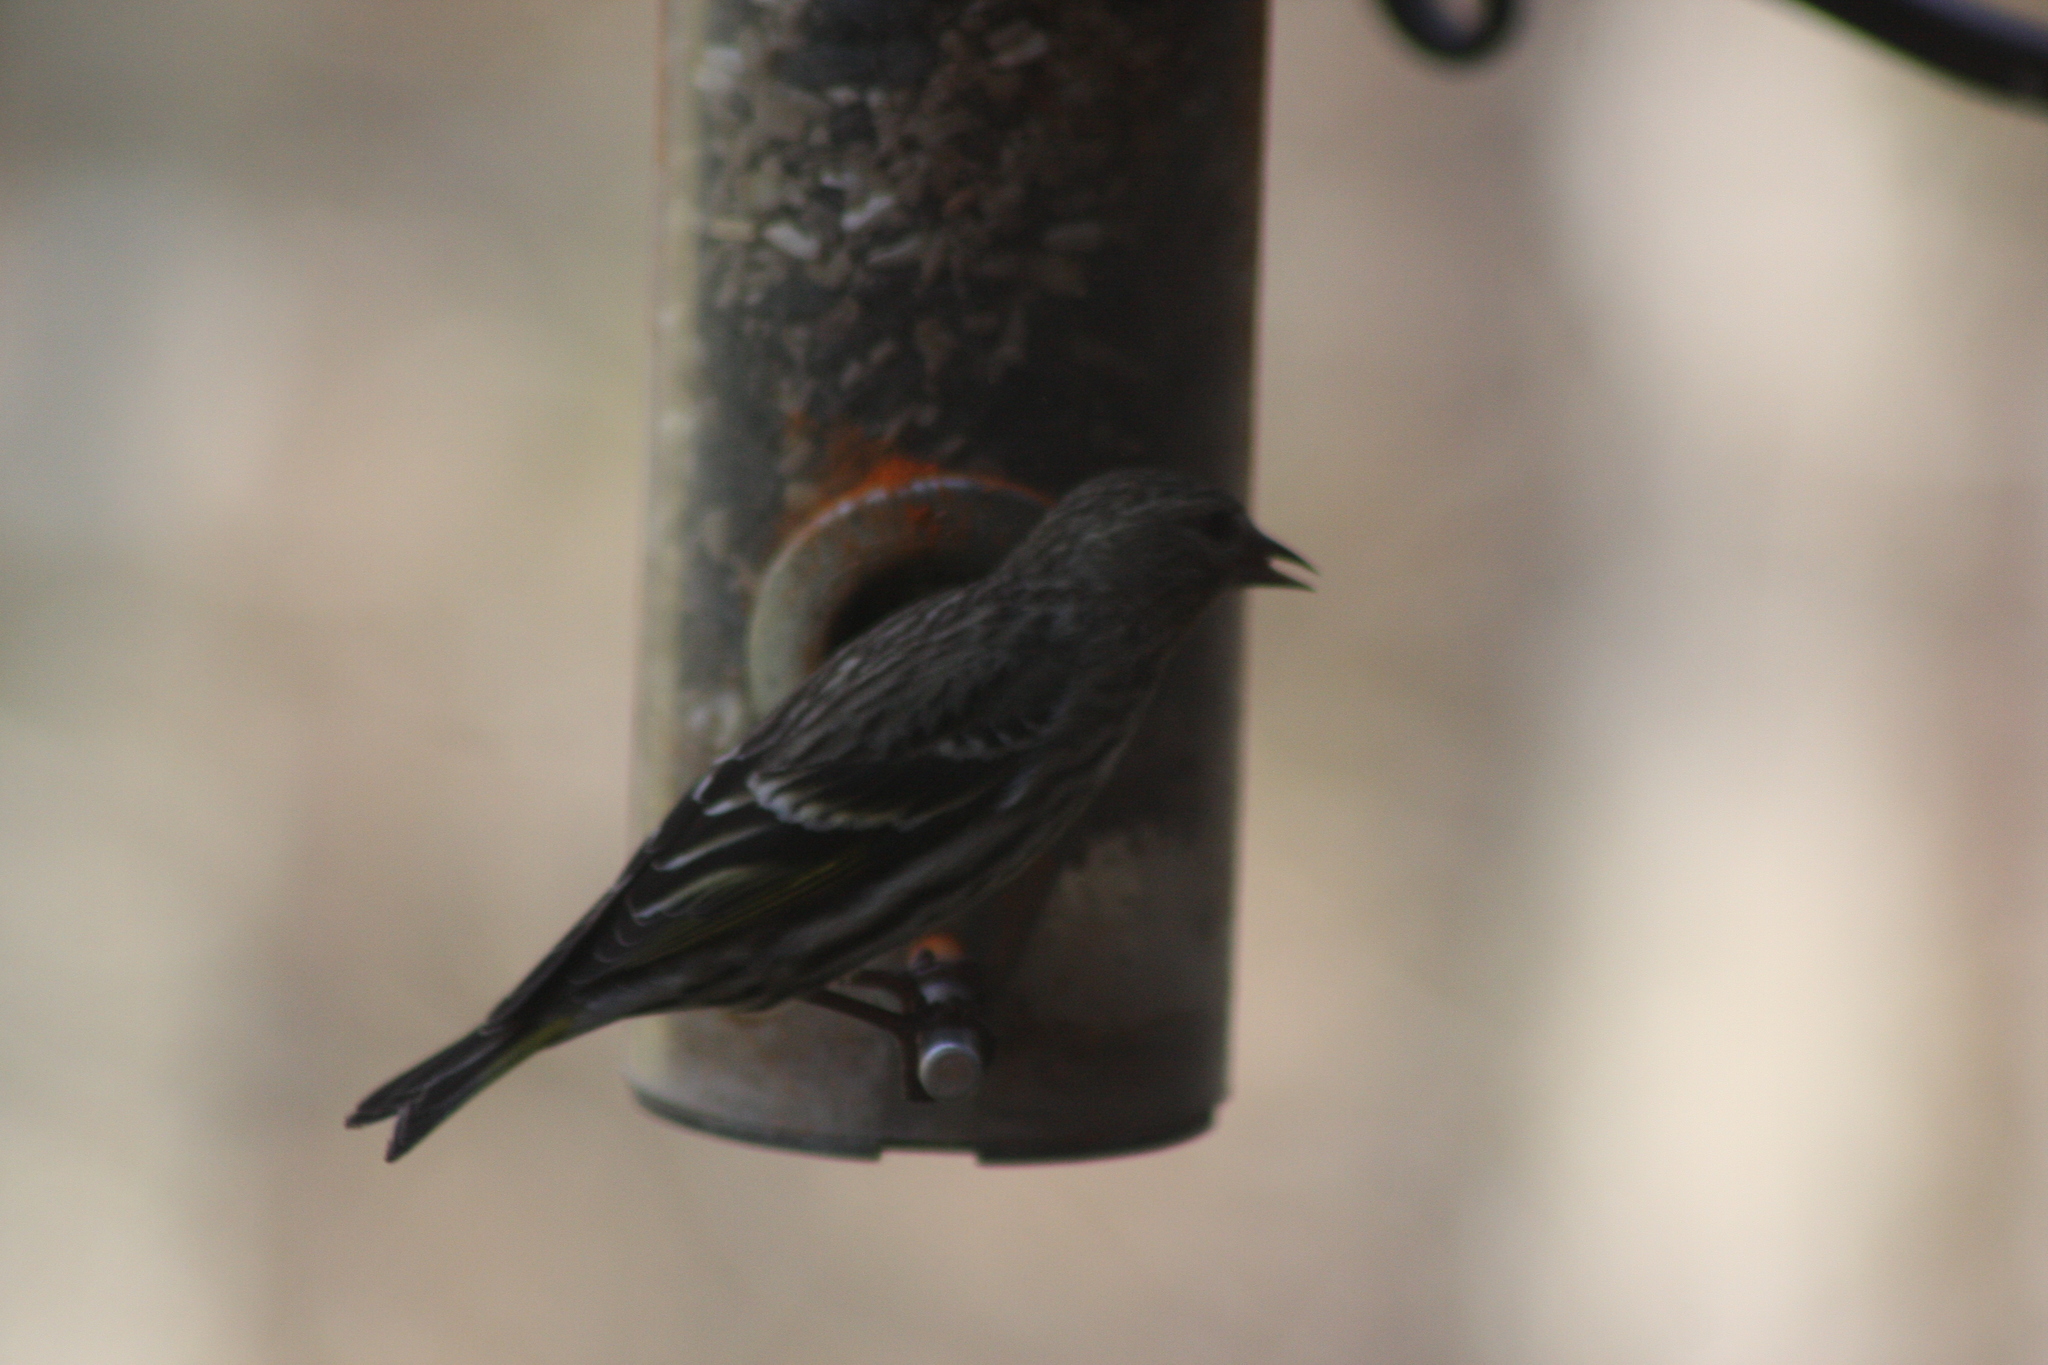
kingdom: Animalia
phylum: Chordata
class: Aves
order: Passeriformes
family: Fringillidae
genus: Spinus
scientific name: Spinus pinus
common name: Pine siskin
